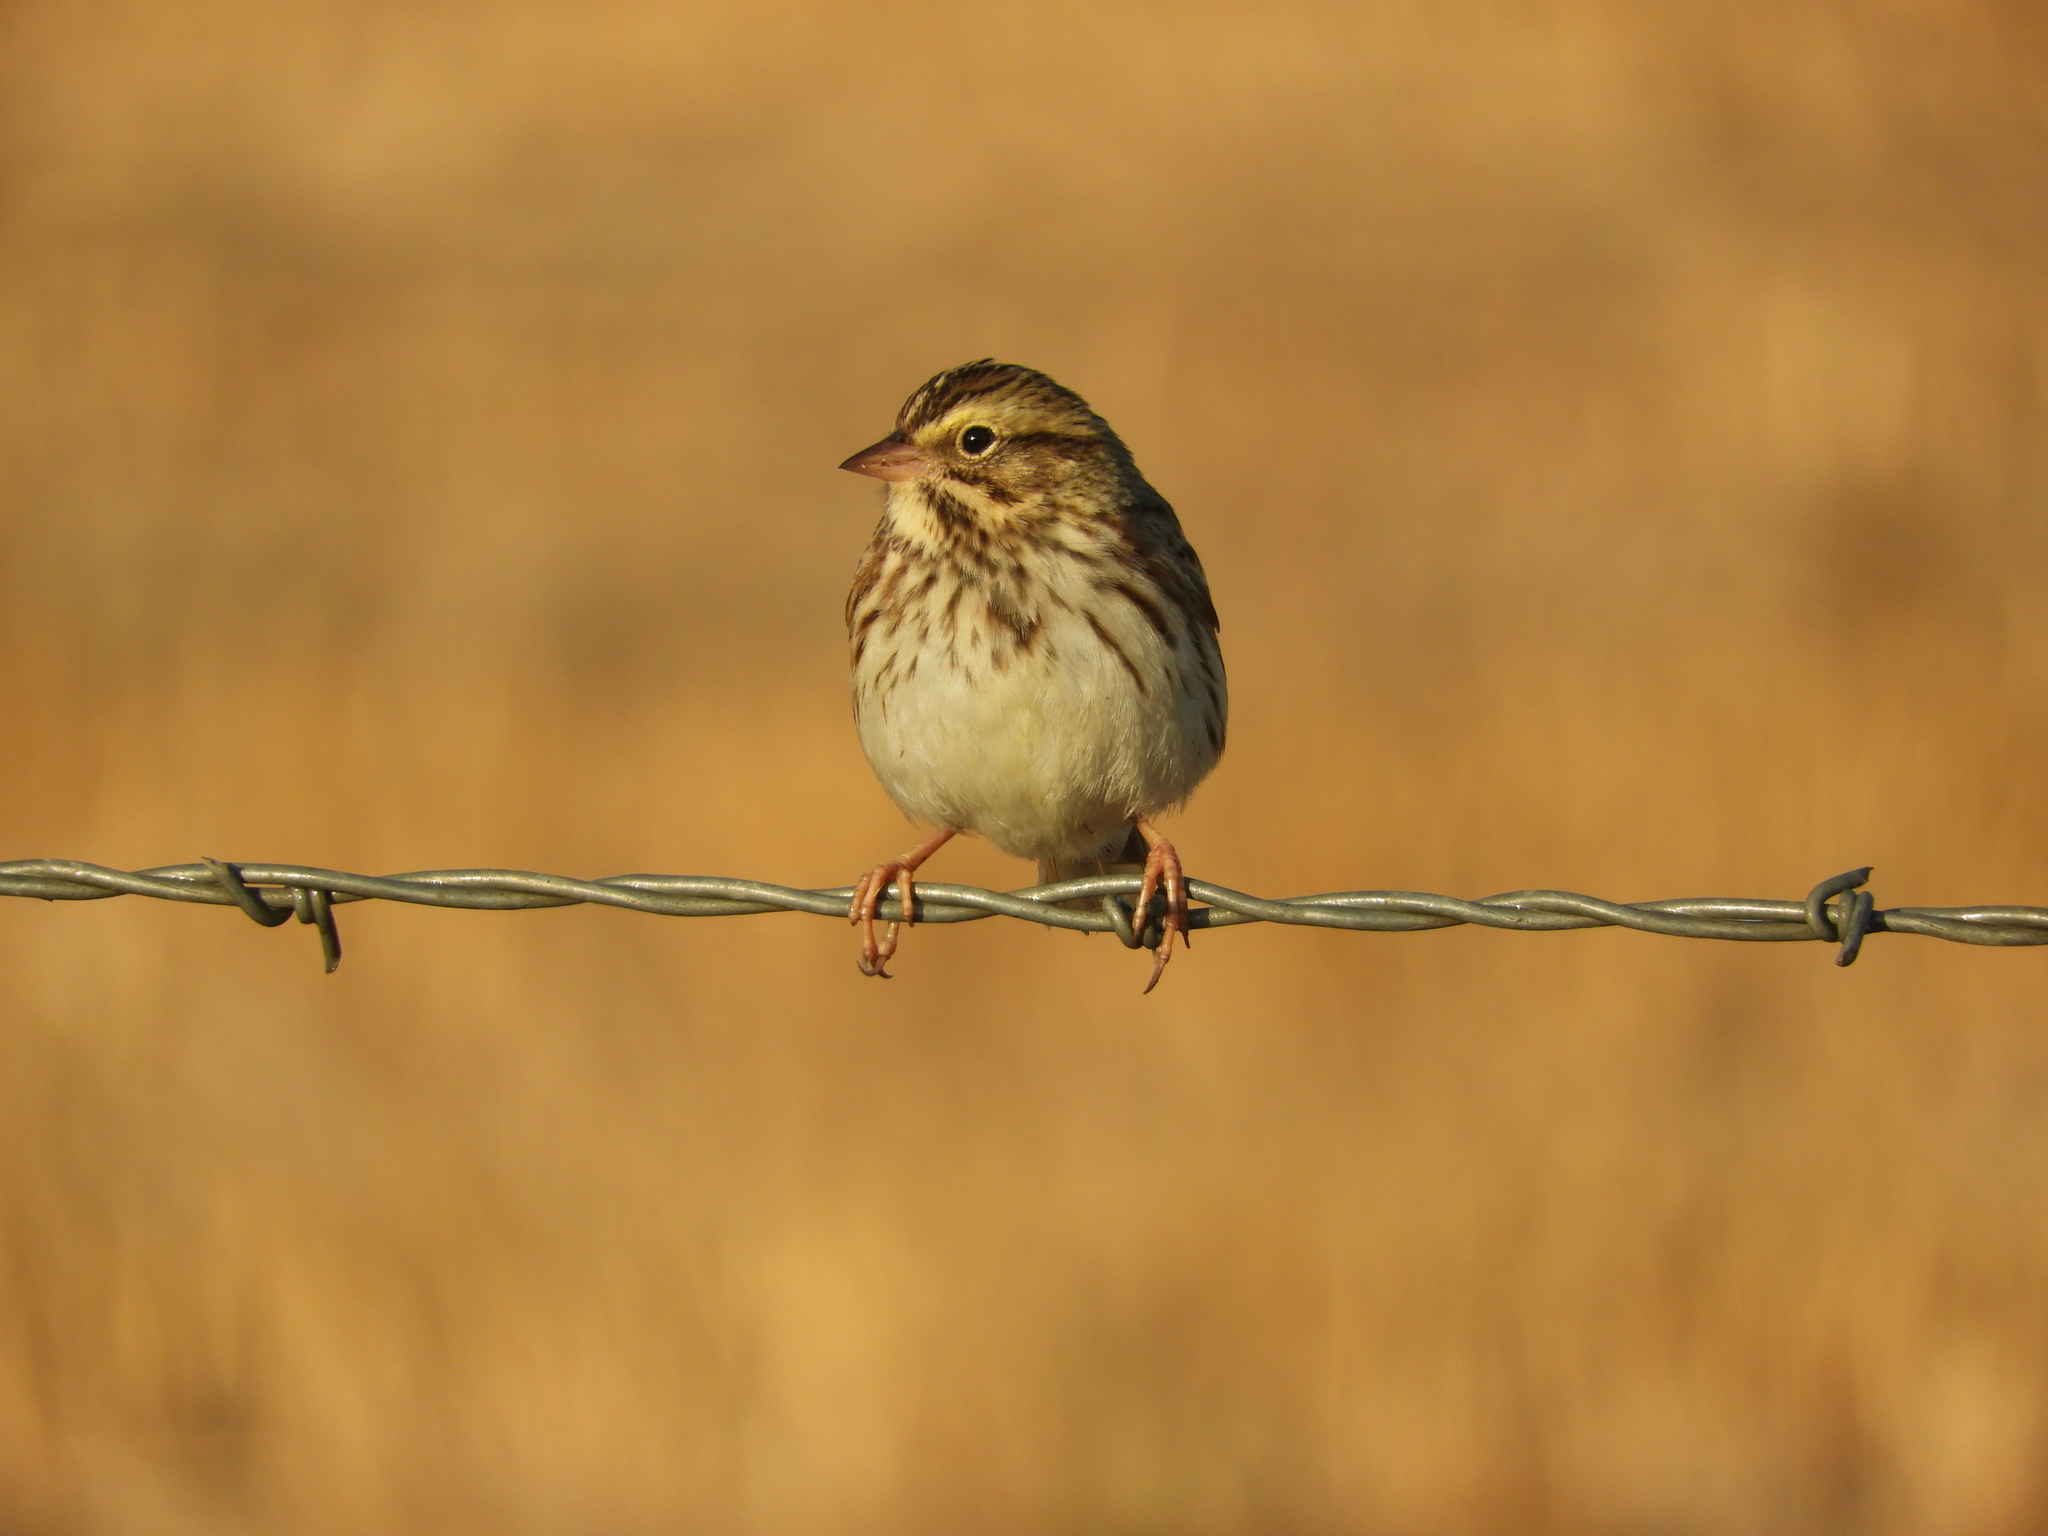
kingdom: Animalia
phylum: Chordata
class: Aves
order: Passeriformes
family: Passerellidae
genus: Passerculus
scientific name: Passerculus sandwichensis
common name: Savannah sparrow
